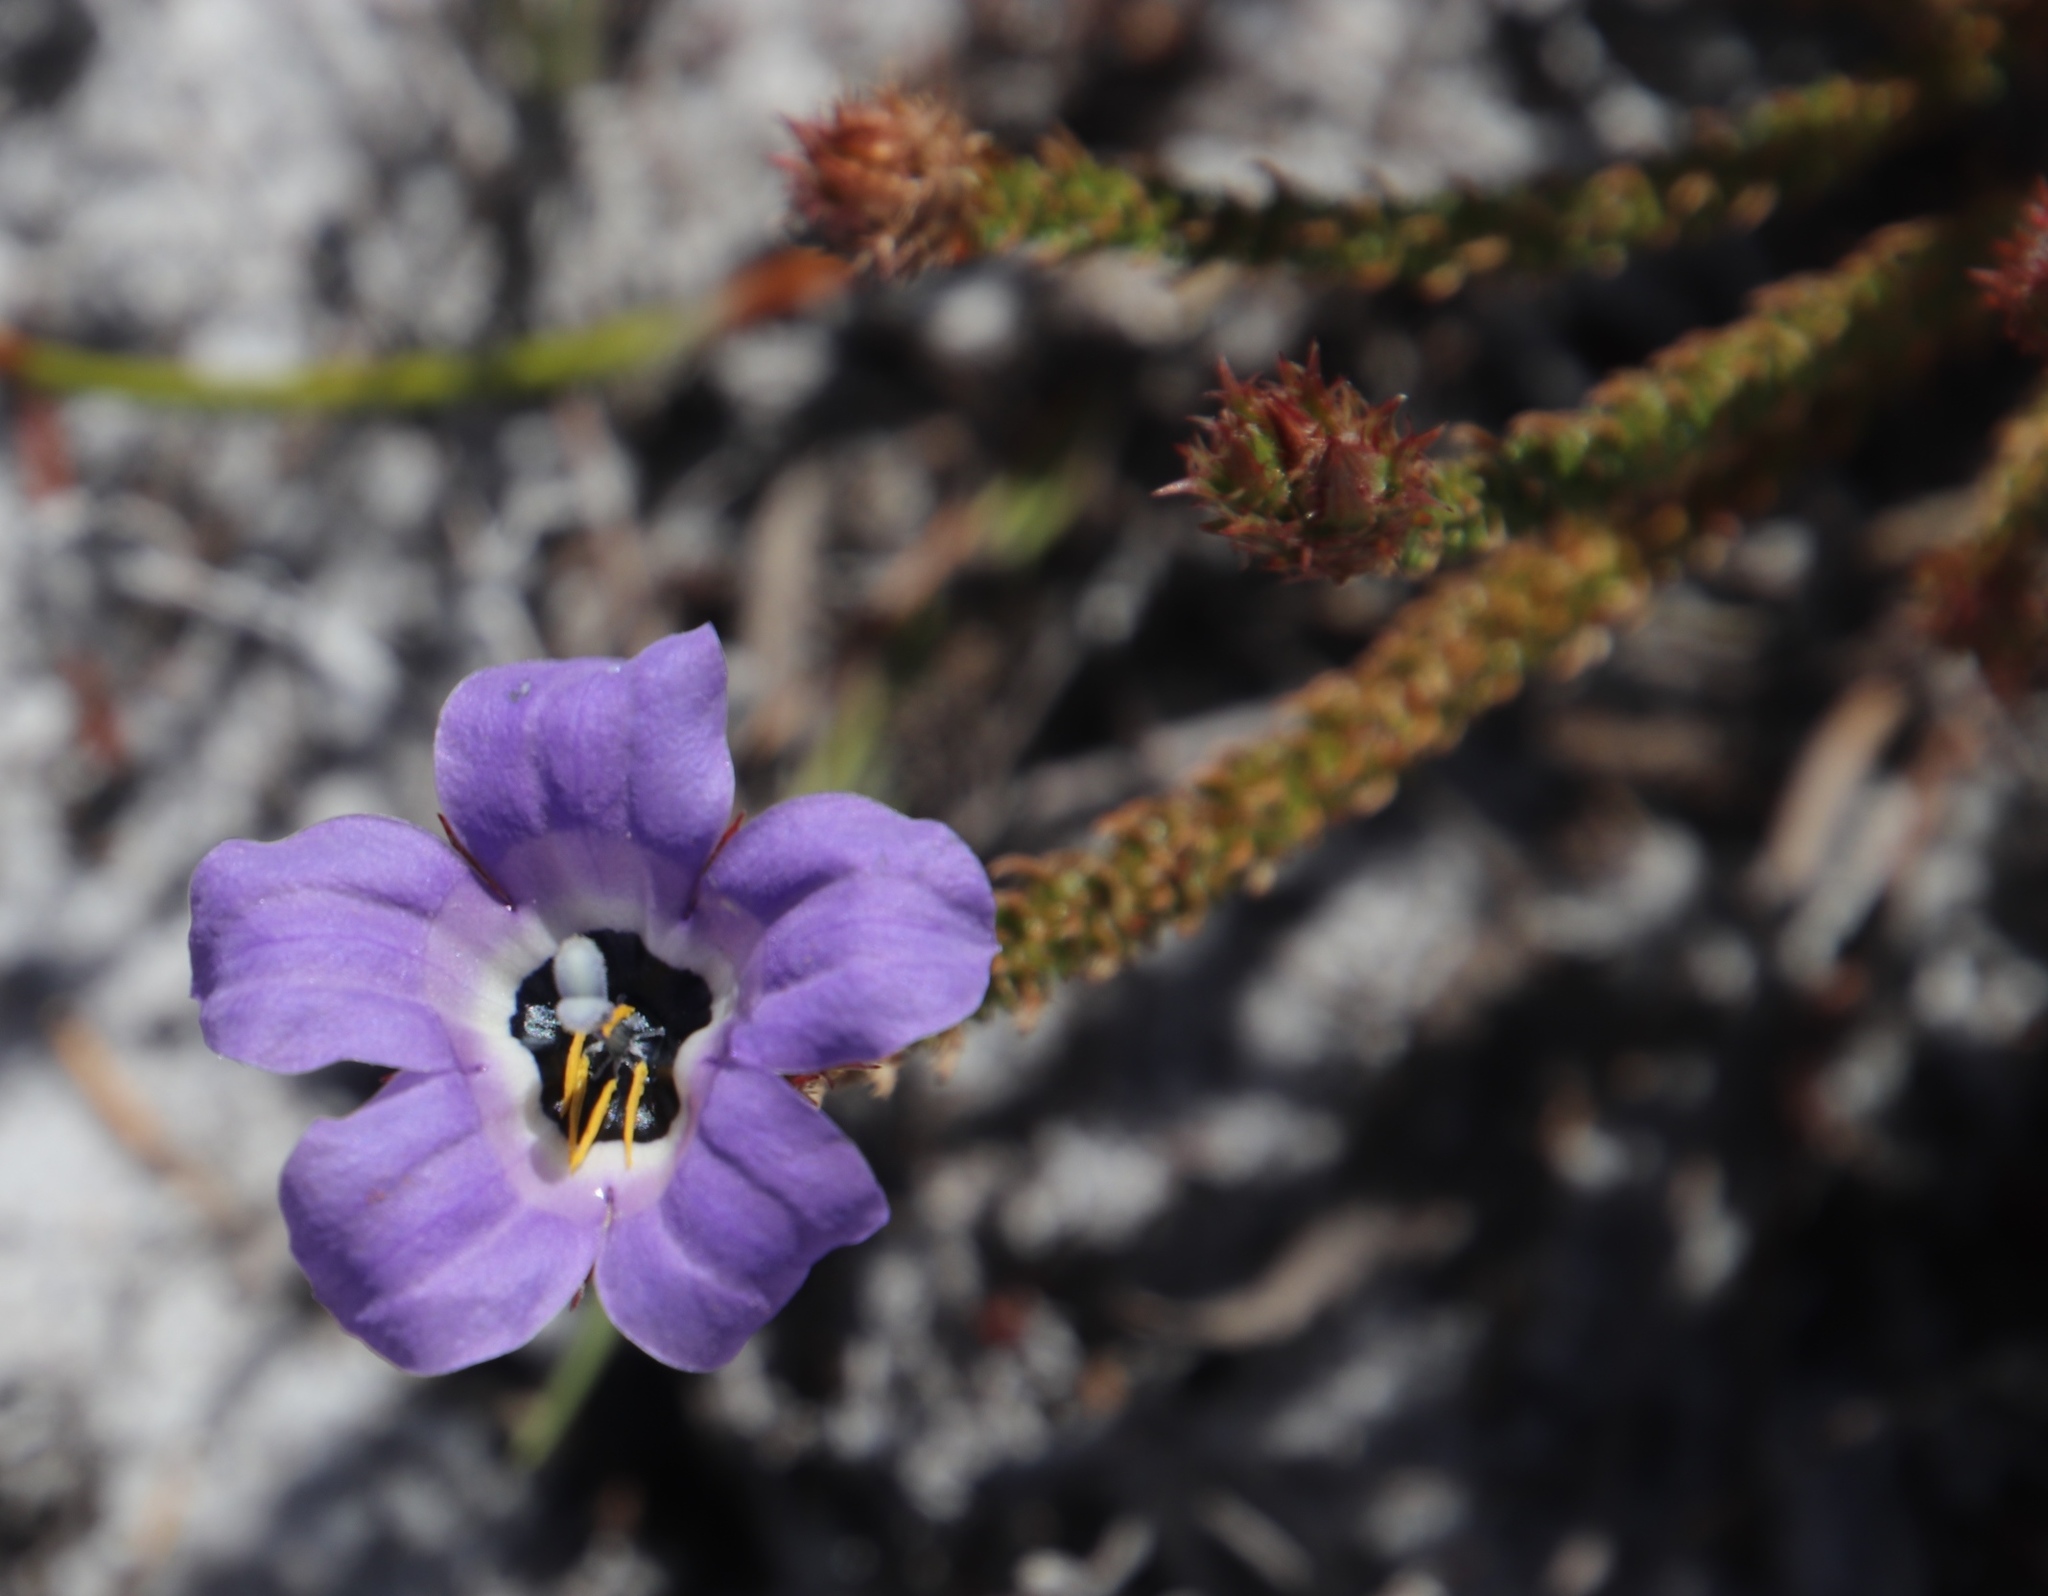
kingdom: Plantae
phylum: Tracheophyta
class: Magnoliopsida
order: Asterales
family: Campanulaceae
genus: Roella
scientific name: Roella triflora
